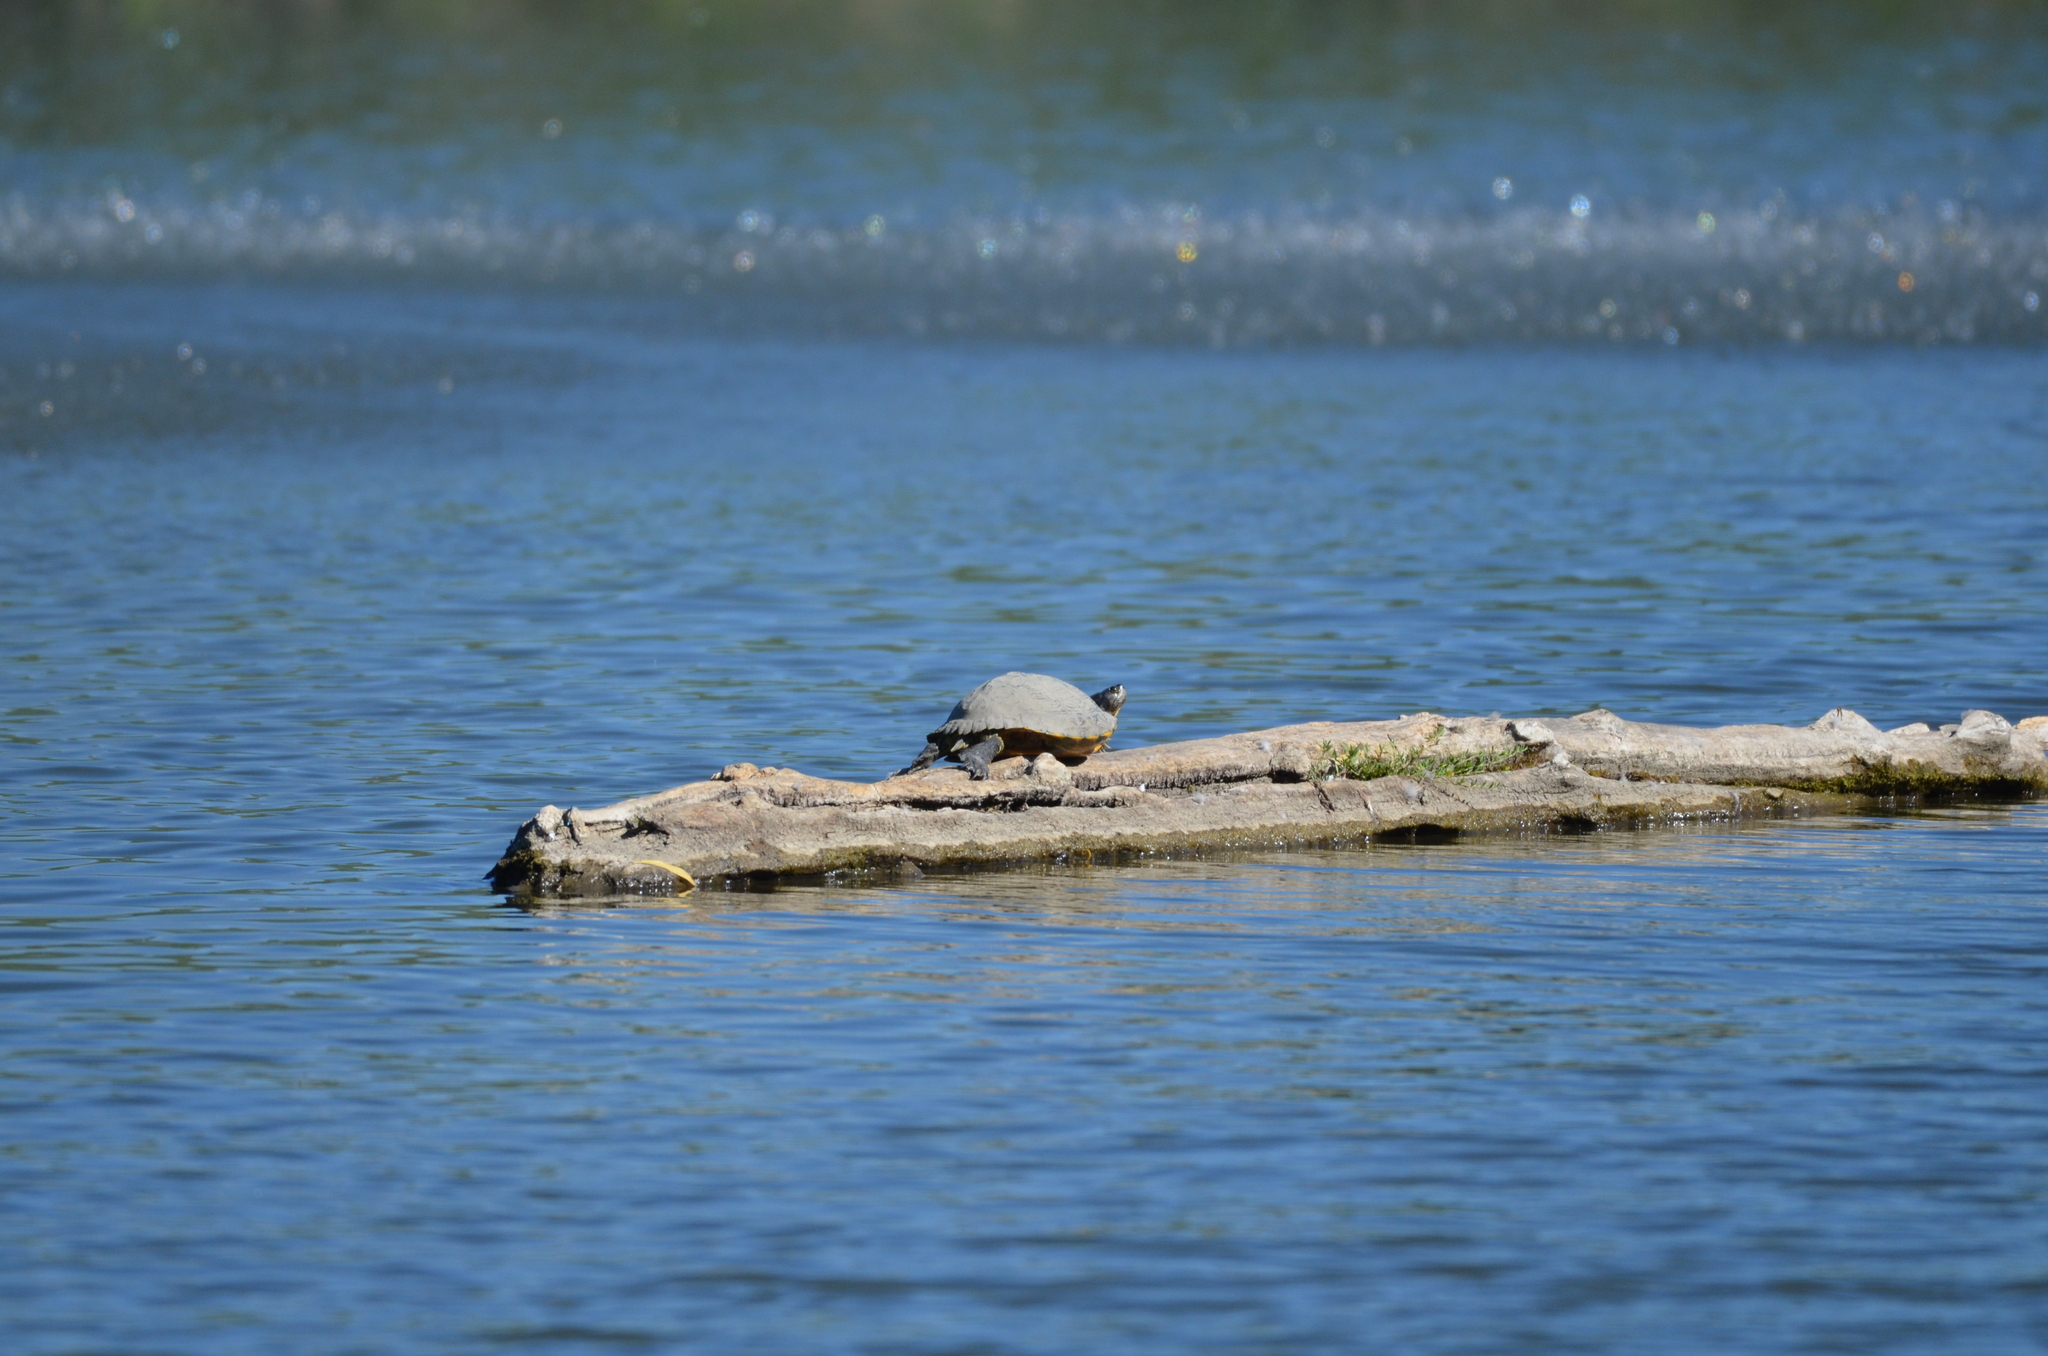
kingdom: Animalia
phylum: Chordata
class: Testudines
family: Emydidae
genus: Trachemys
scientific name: Trachemys scripta
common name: Slider
